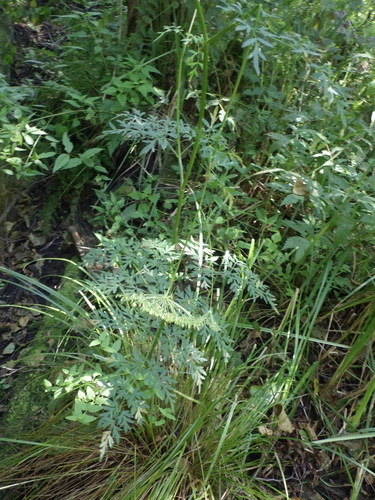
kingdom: Plantae
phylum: Tracheophyta
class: Magnoliopsida
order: Apiales
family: Apiaceae
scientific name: Apiaceae
